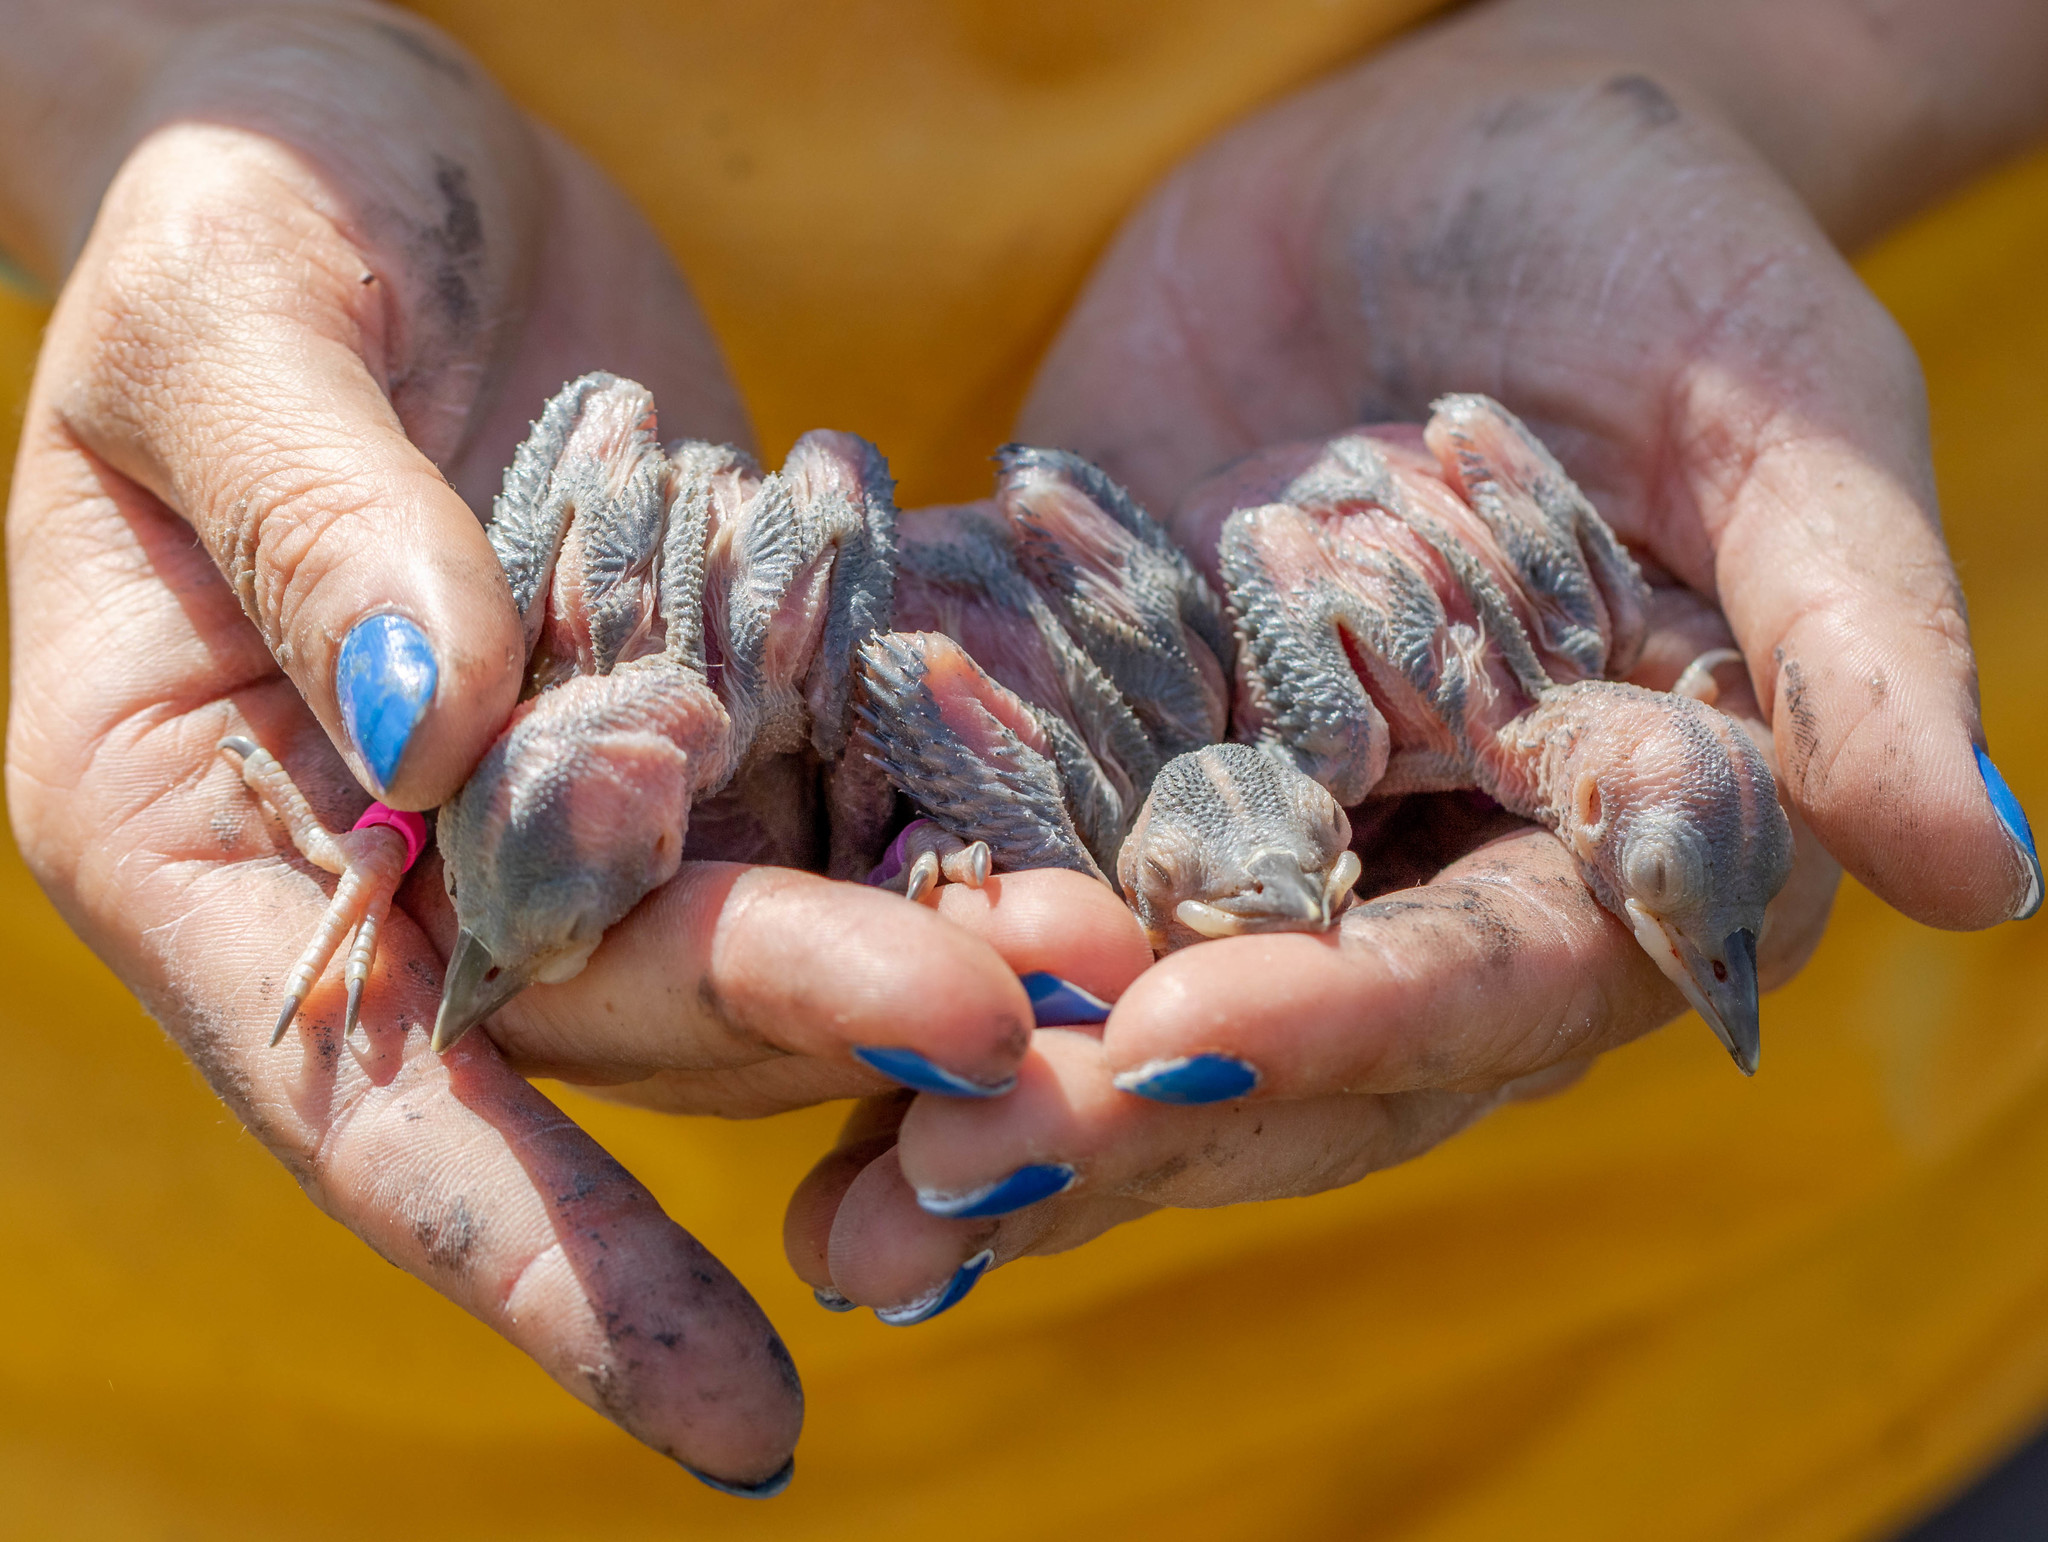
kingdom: Animalia
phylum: Chordata
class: Aves
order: Piciformes
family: Picidae
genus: Leuconotopicus
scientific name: Leuconotopicus borealis
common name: Red-cockaded woodpecker
